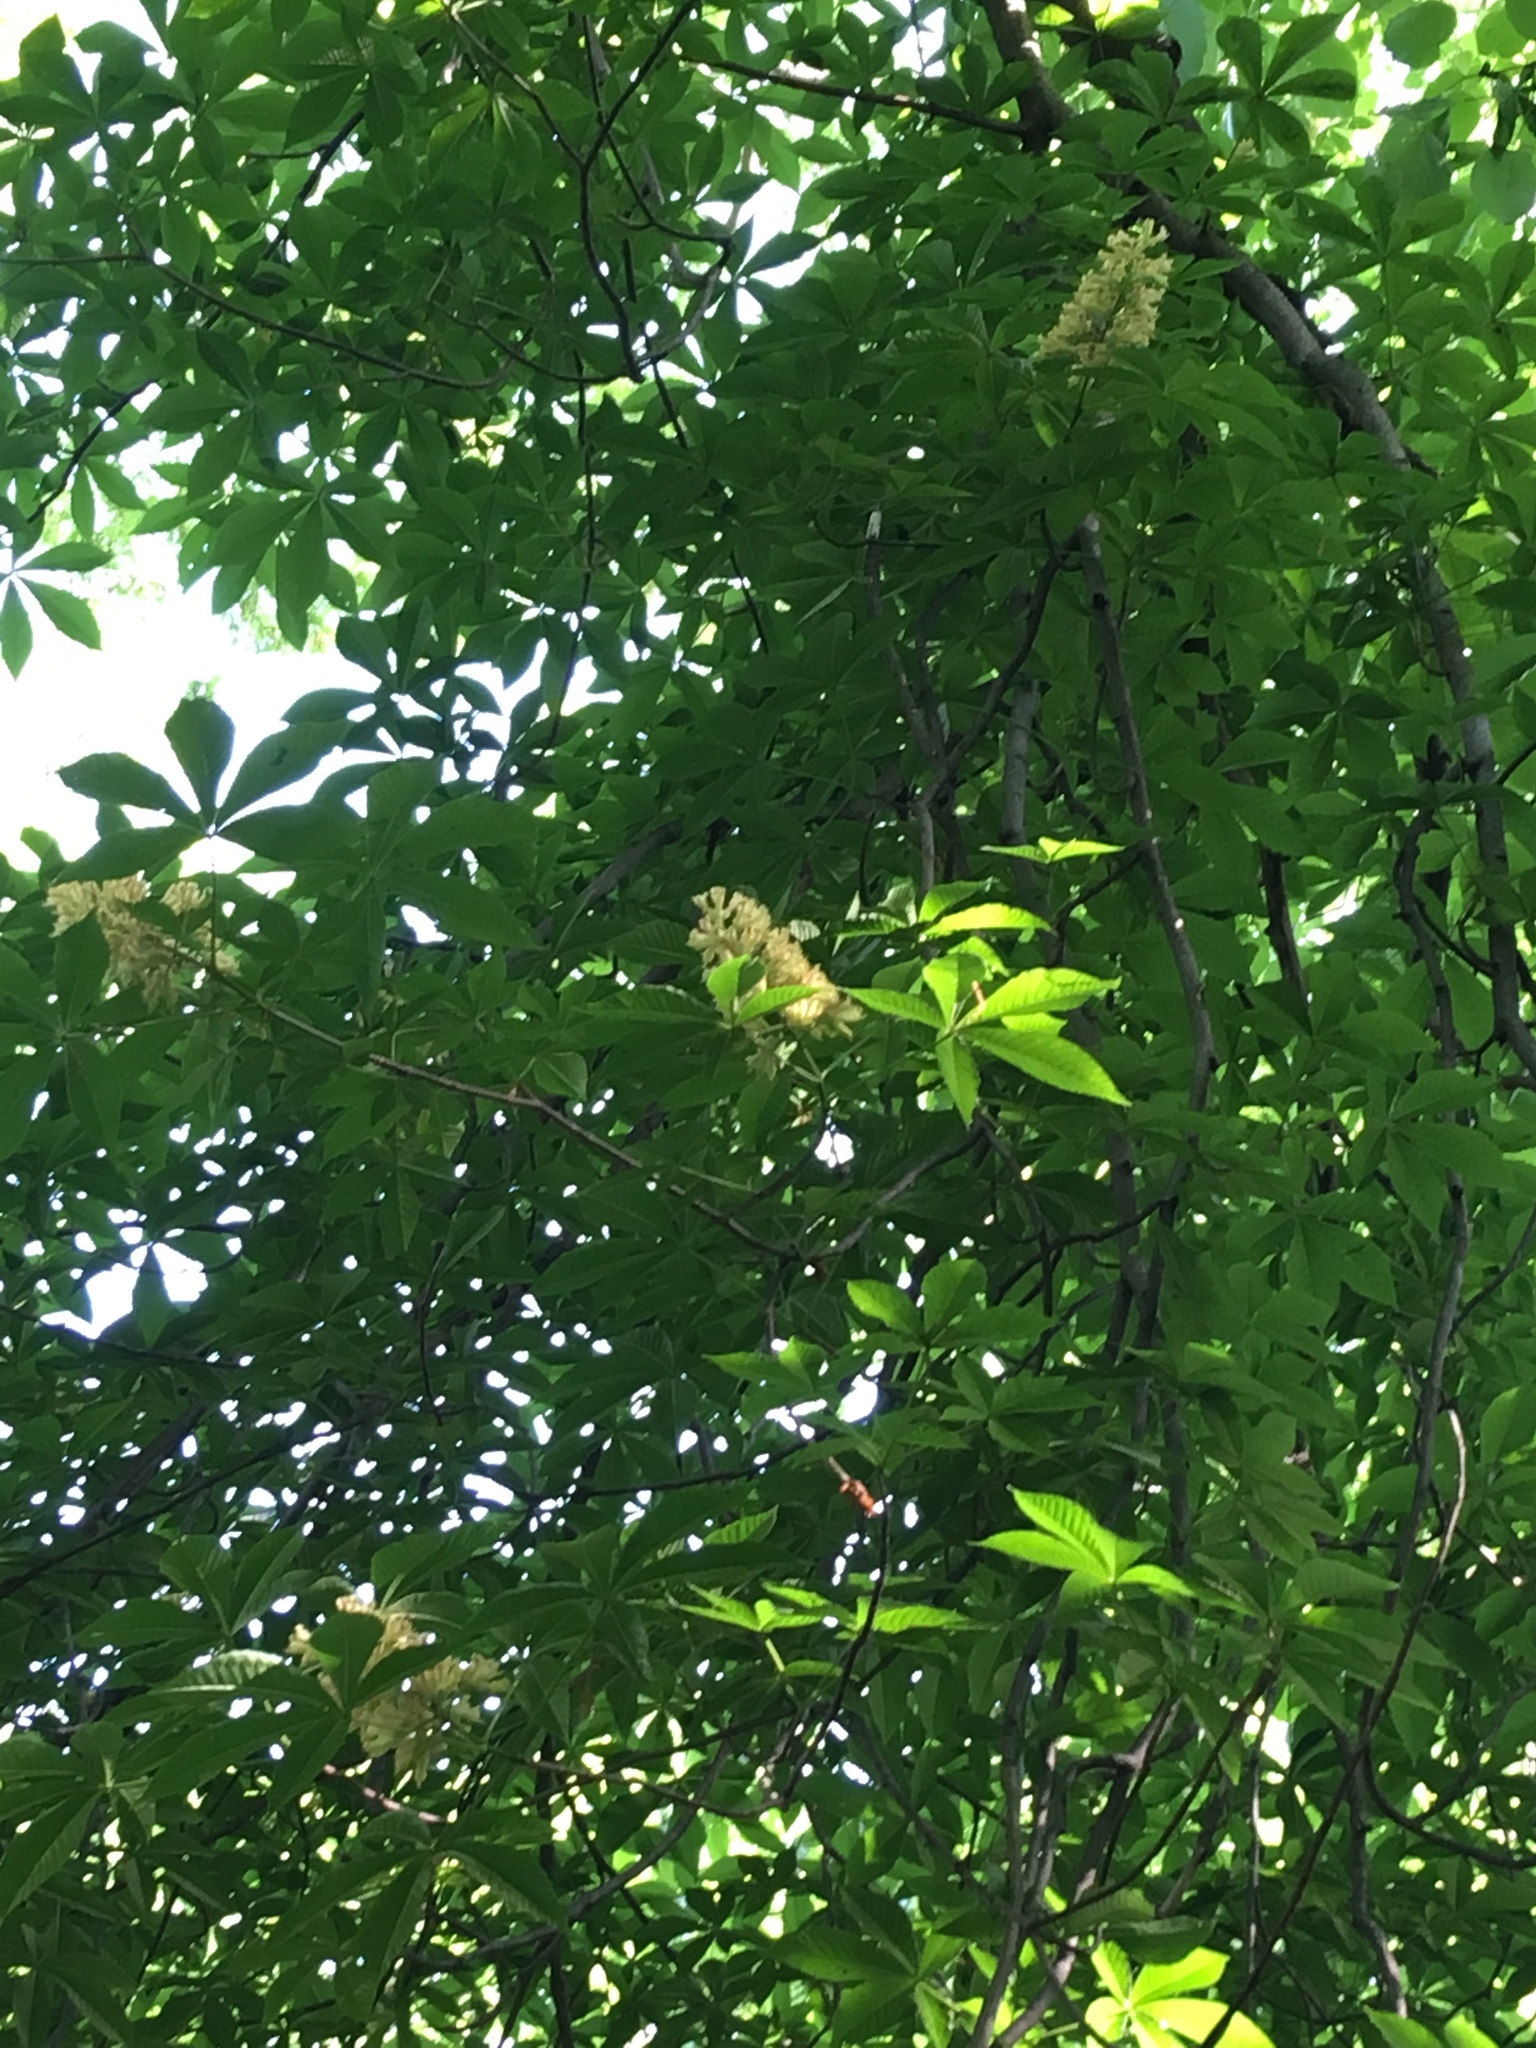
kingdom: Plantae
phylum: Tracheophyta
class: Magnoliopsida
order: Sapindales
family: Sapindaceae
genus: Aesculus
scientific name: Aesculus flava
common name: Yellow buckeye
